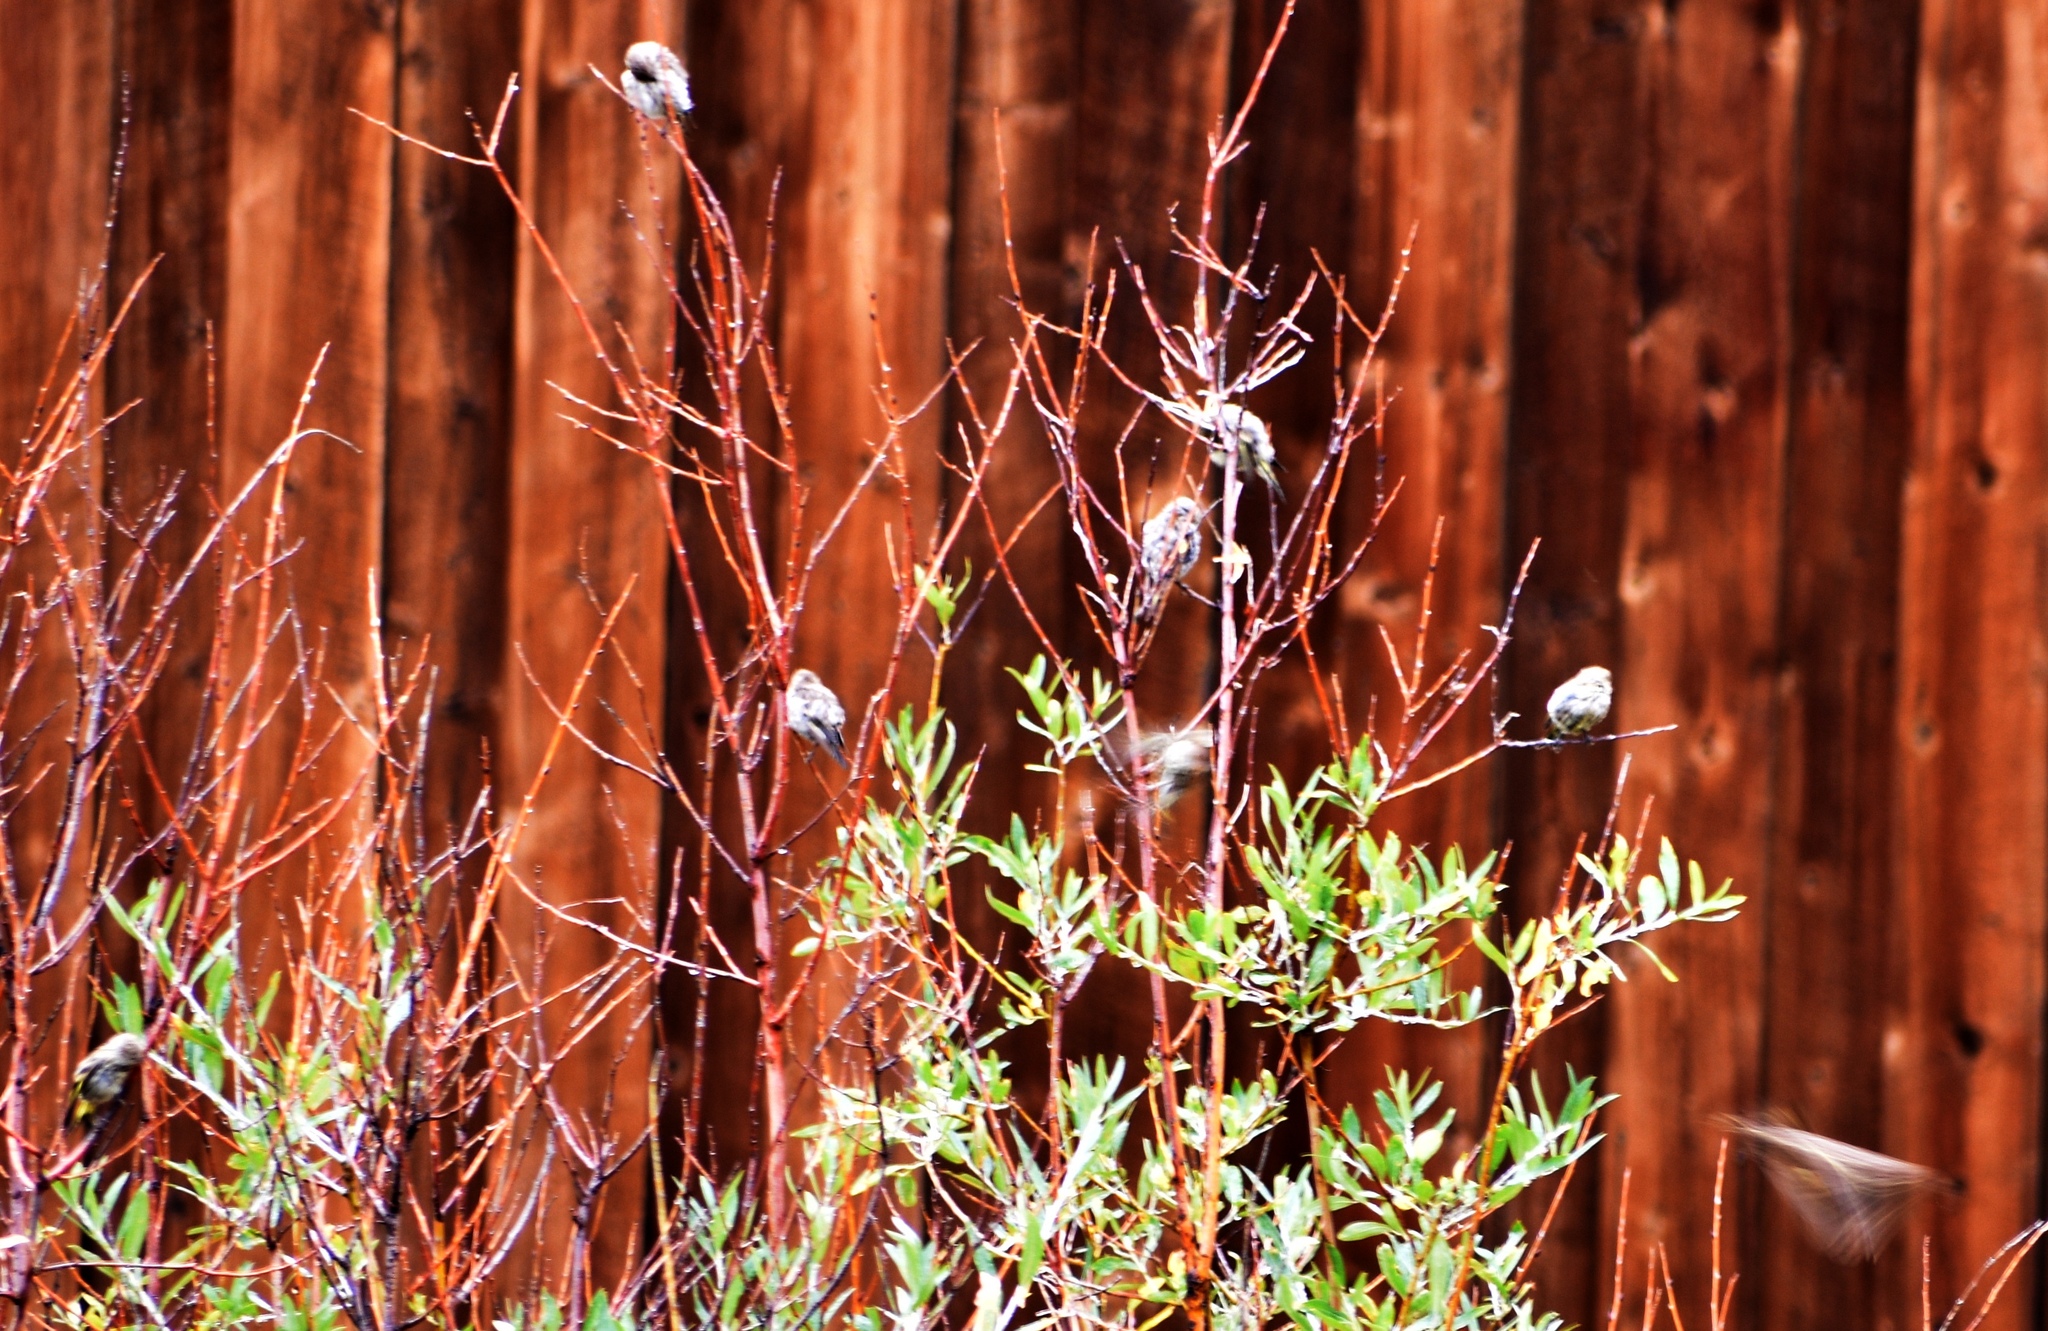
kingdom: Animalia
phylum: Chordata
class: Aves
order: Passeriformes
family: Fringillidae
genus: Spinus
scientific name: Spinus pinus
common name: Pine siskin
